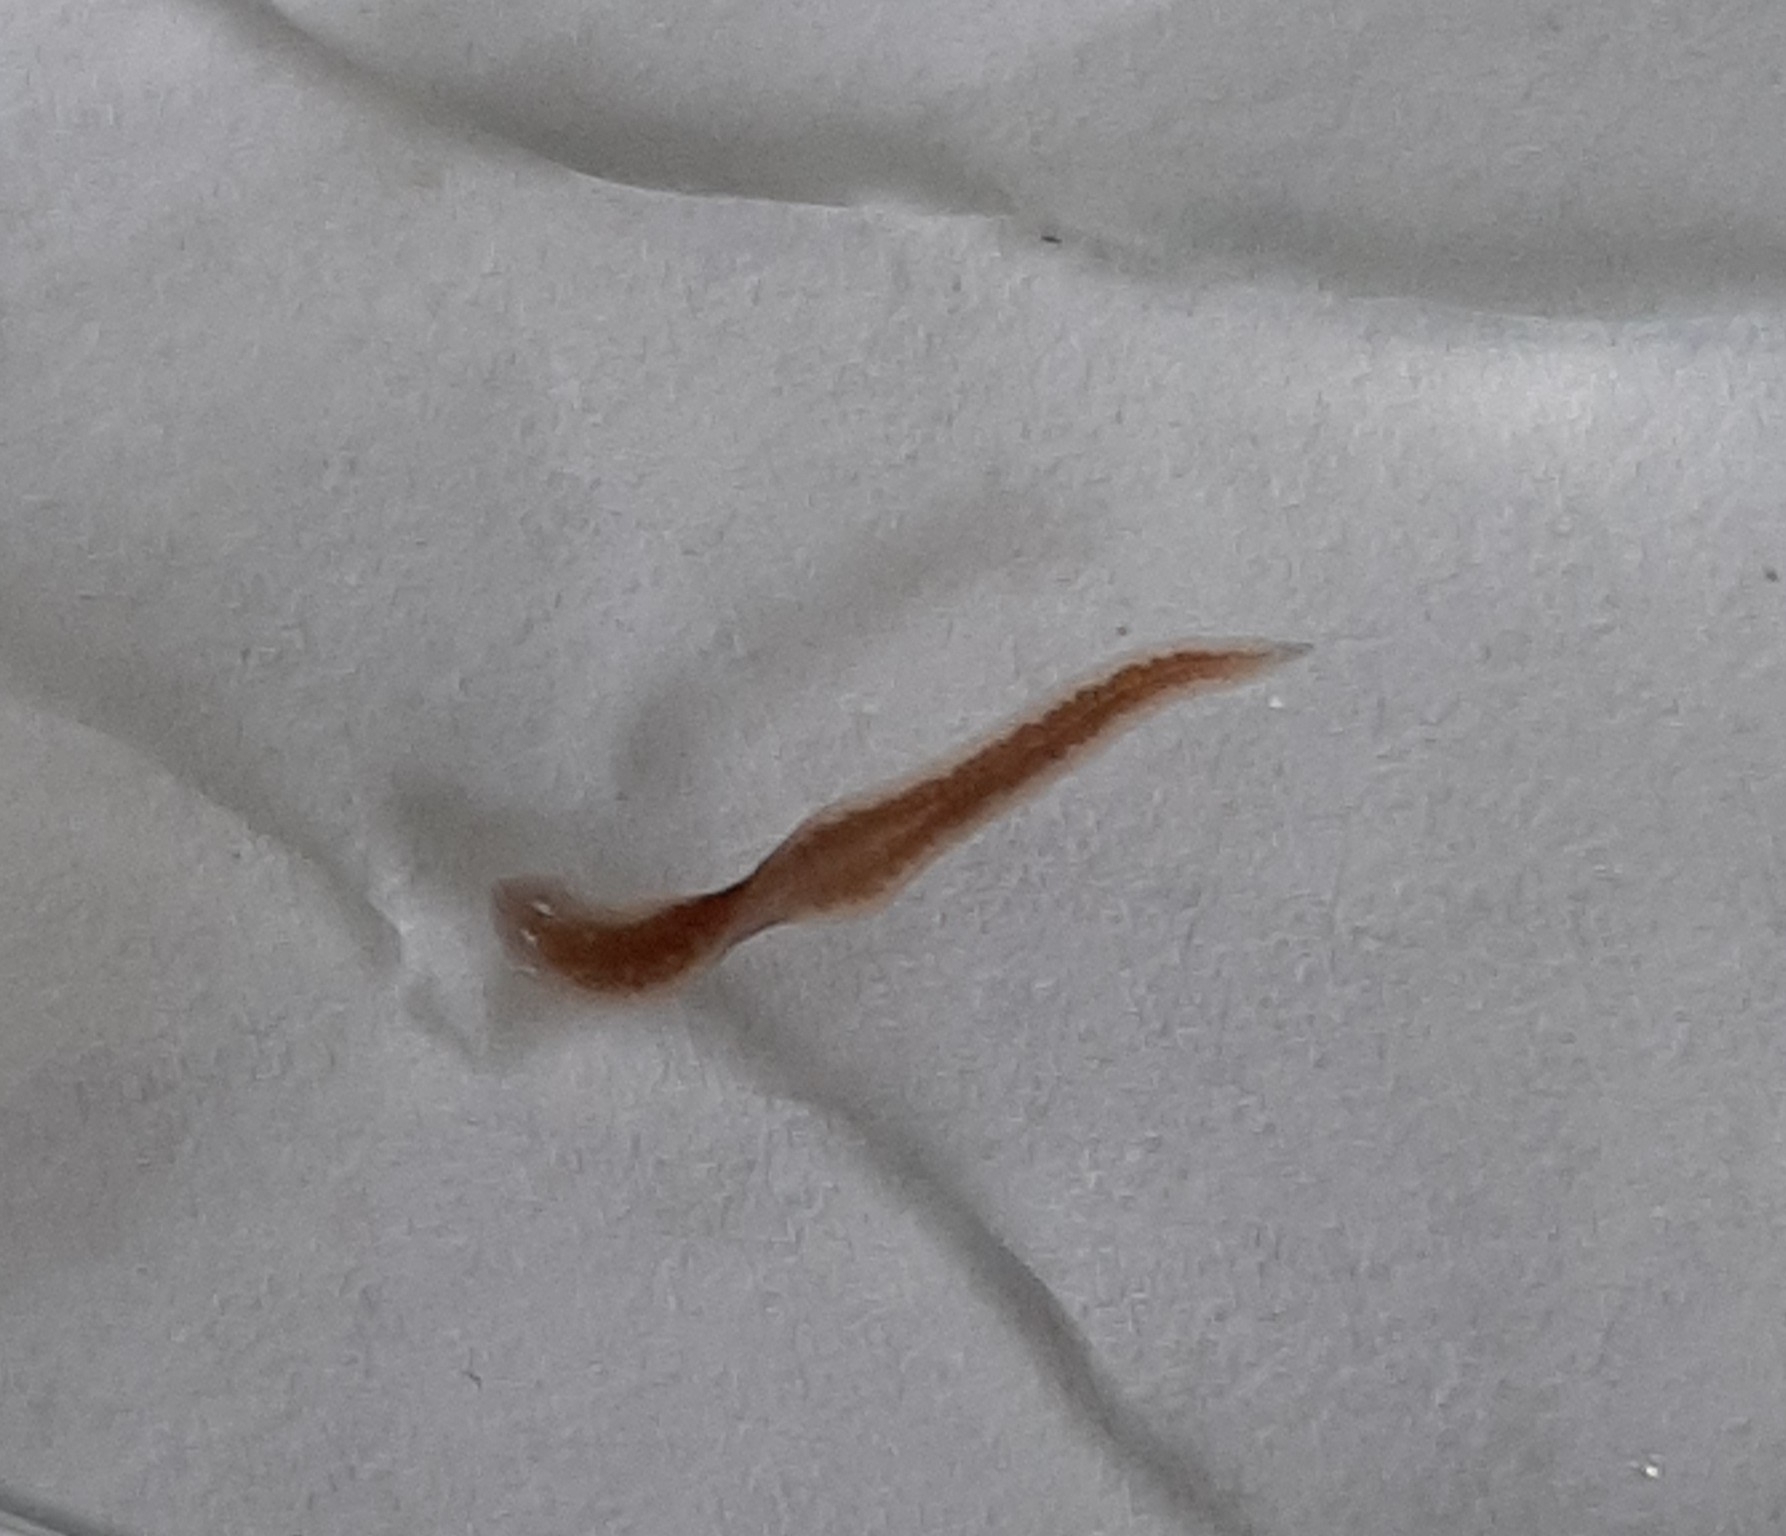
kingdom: Animalia
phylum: Platyhelminthes
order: Tricladida
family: Dugesiidae
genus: Girardia
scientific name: Girardia dorotocephala
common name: Flatworm
